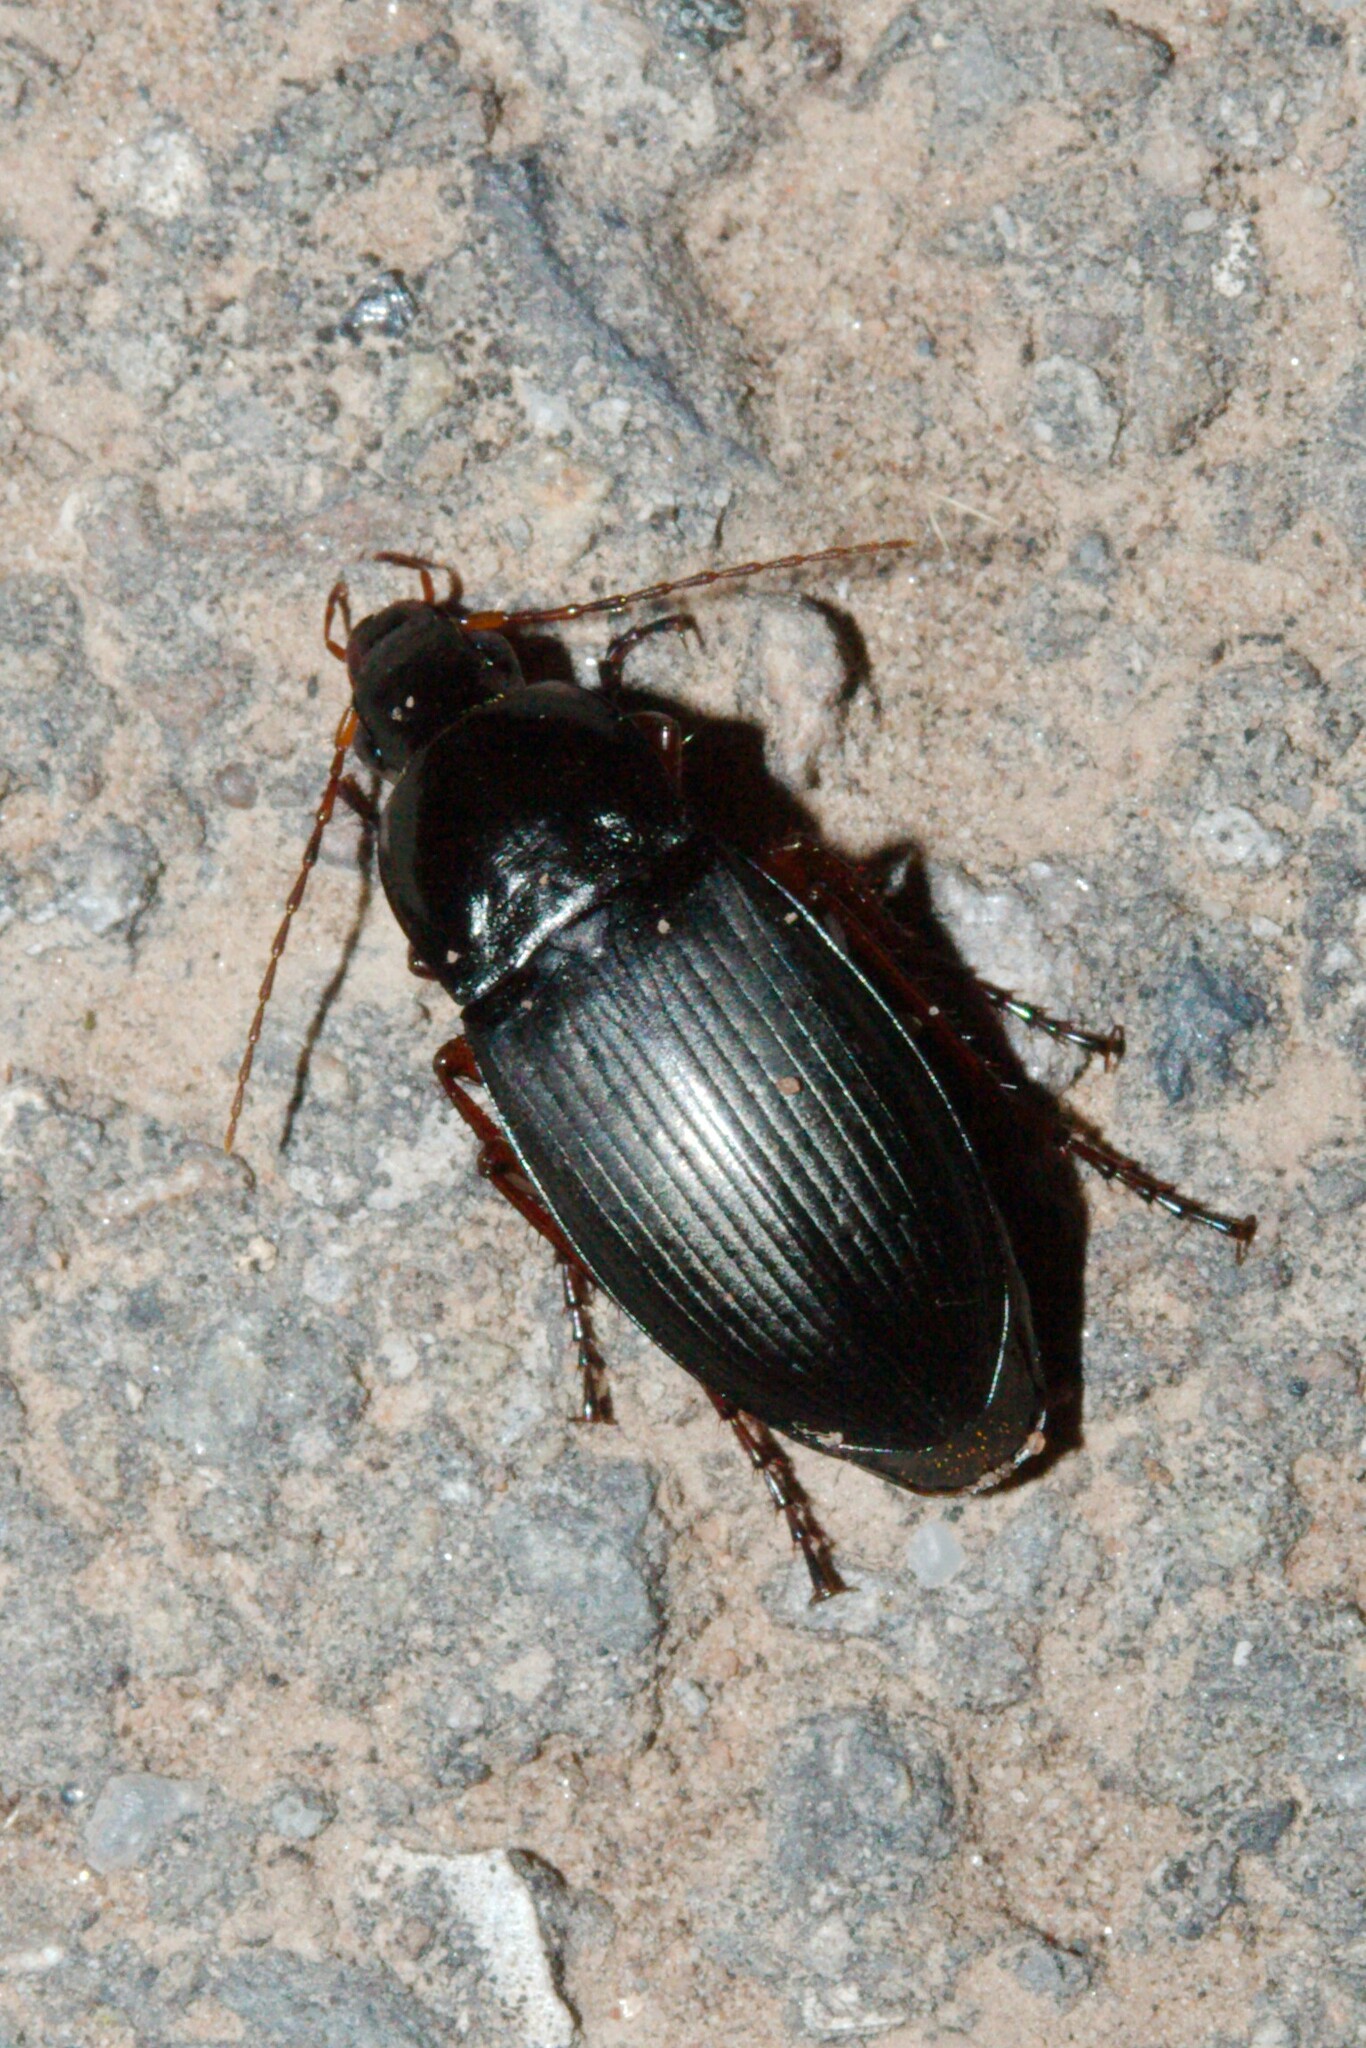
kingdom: Animalia
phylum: Arthropoda
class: Insecta
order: Coleoptera
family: Carabidae
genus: Calathus
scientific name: Calathus fuscipes
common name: Dark-footed harp ground beetle
